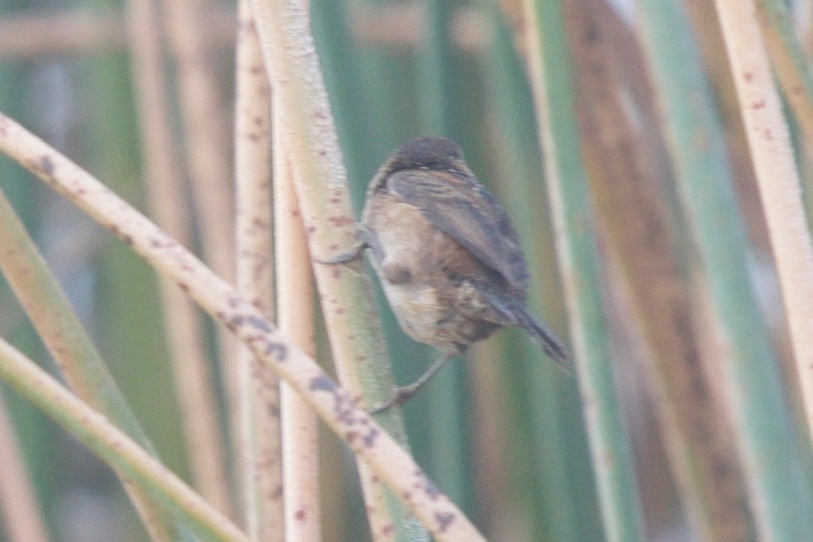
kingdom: Animalia
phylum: Chordata
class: Aves
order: Passeriformes
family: Troglodytidae
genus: Cistothorus
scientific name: Cistothorus palustris
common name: Marsh wren
